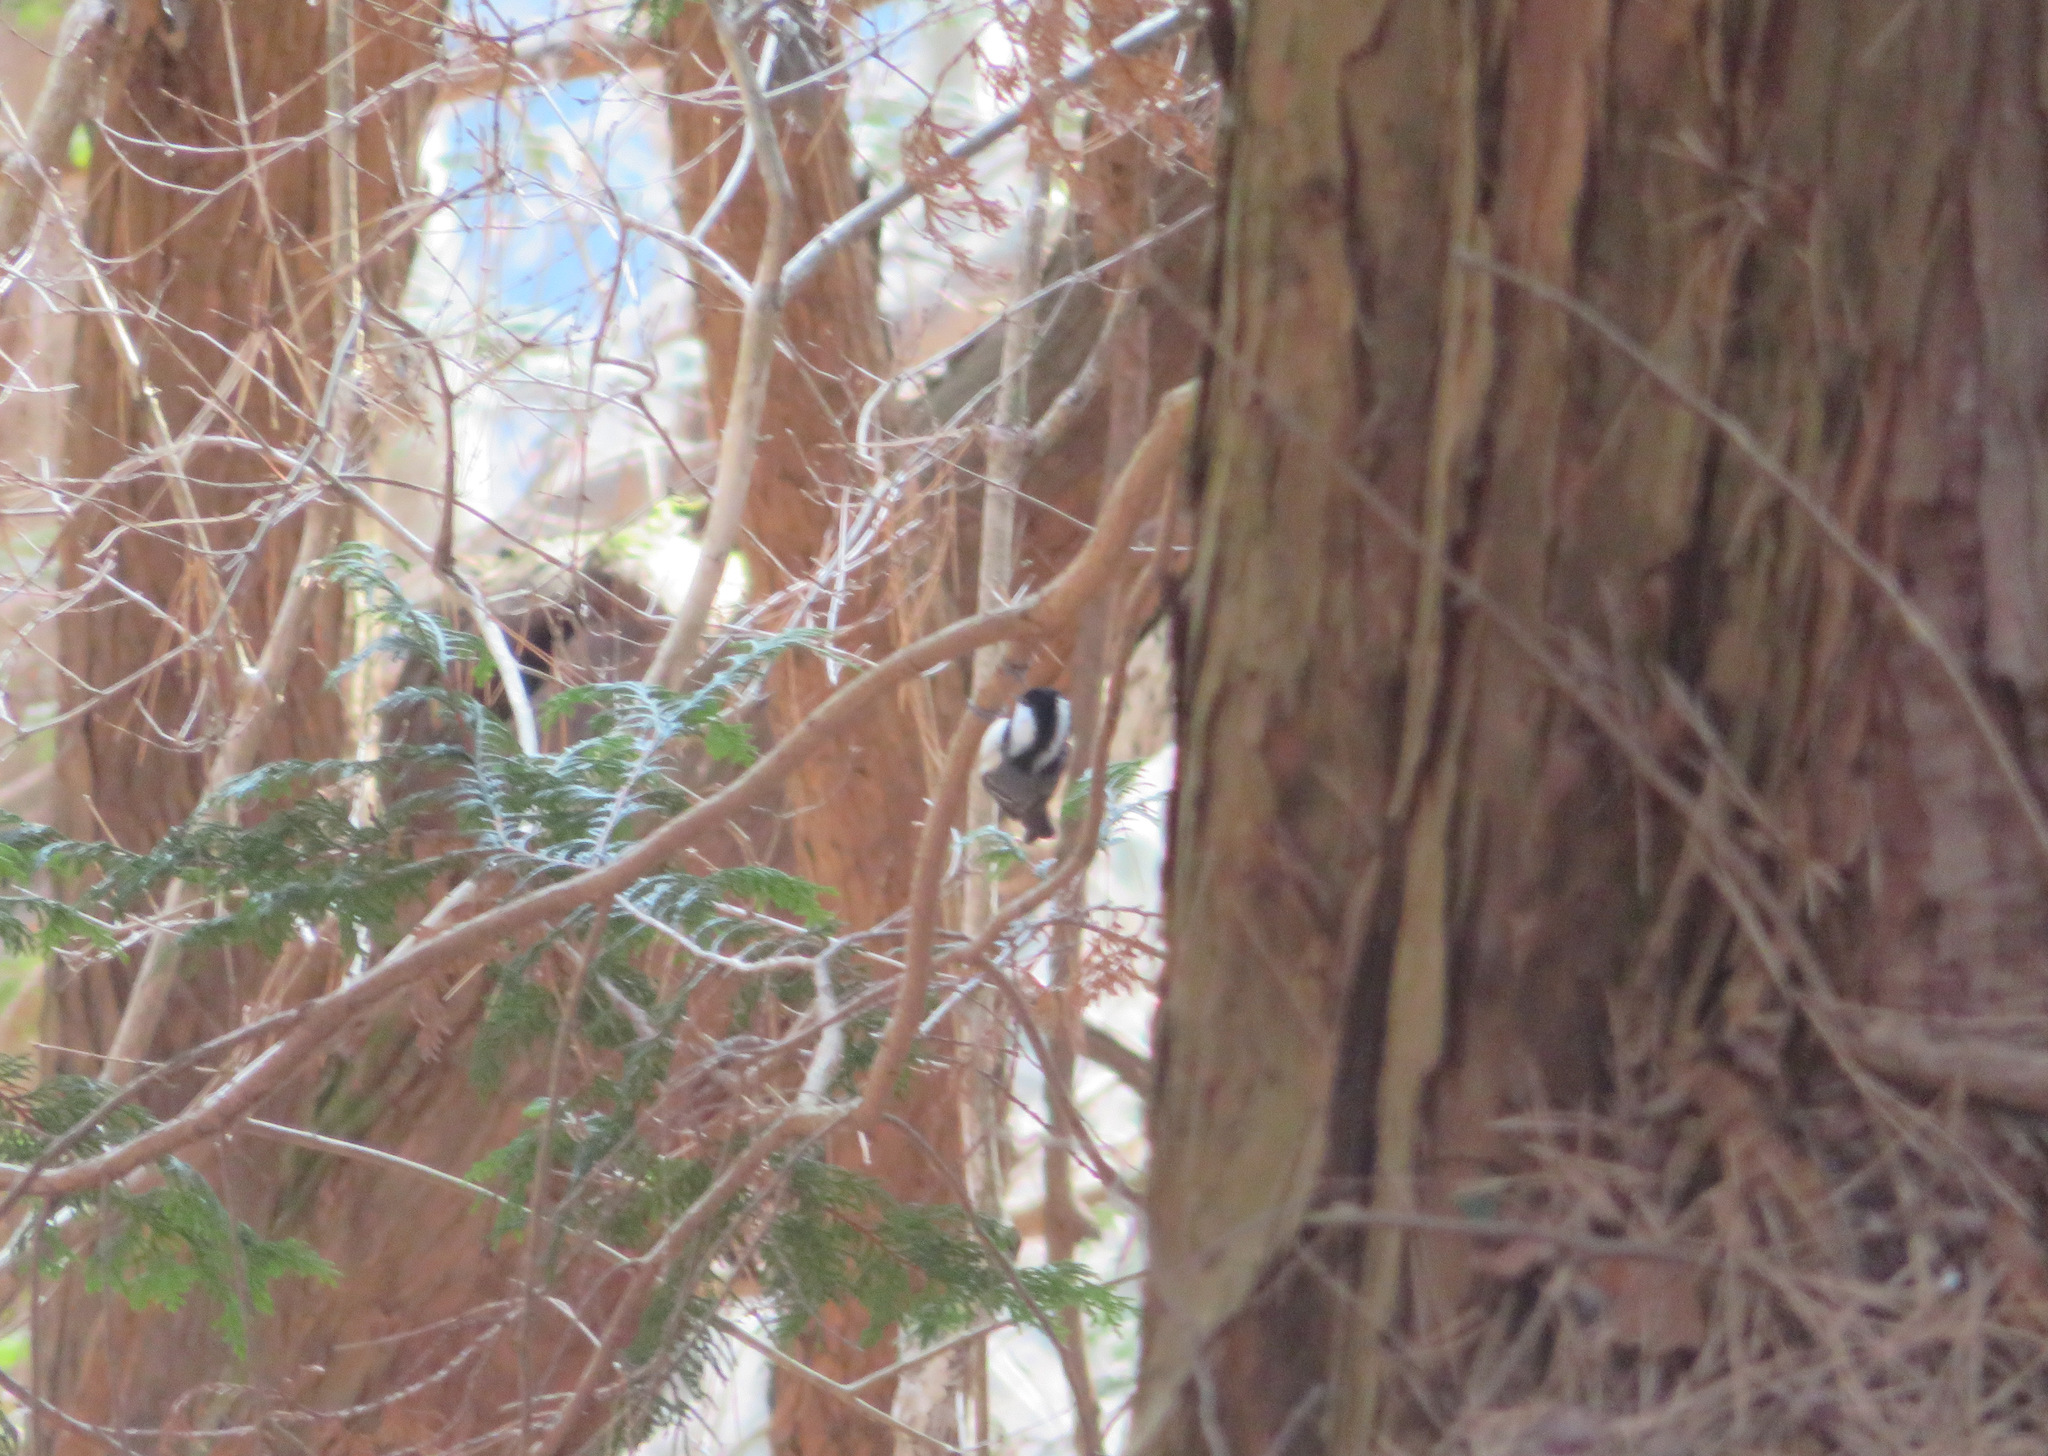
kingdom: Animalia
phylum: Chordata
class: Aves
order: Passeriformes
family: Paridae
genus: Periparus
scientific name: Periparus ater
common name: Coal tit
